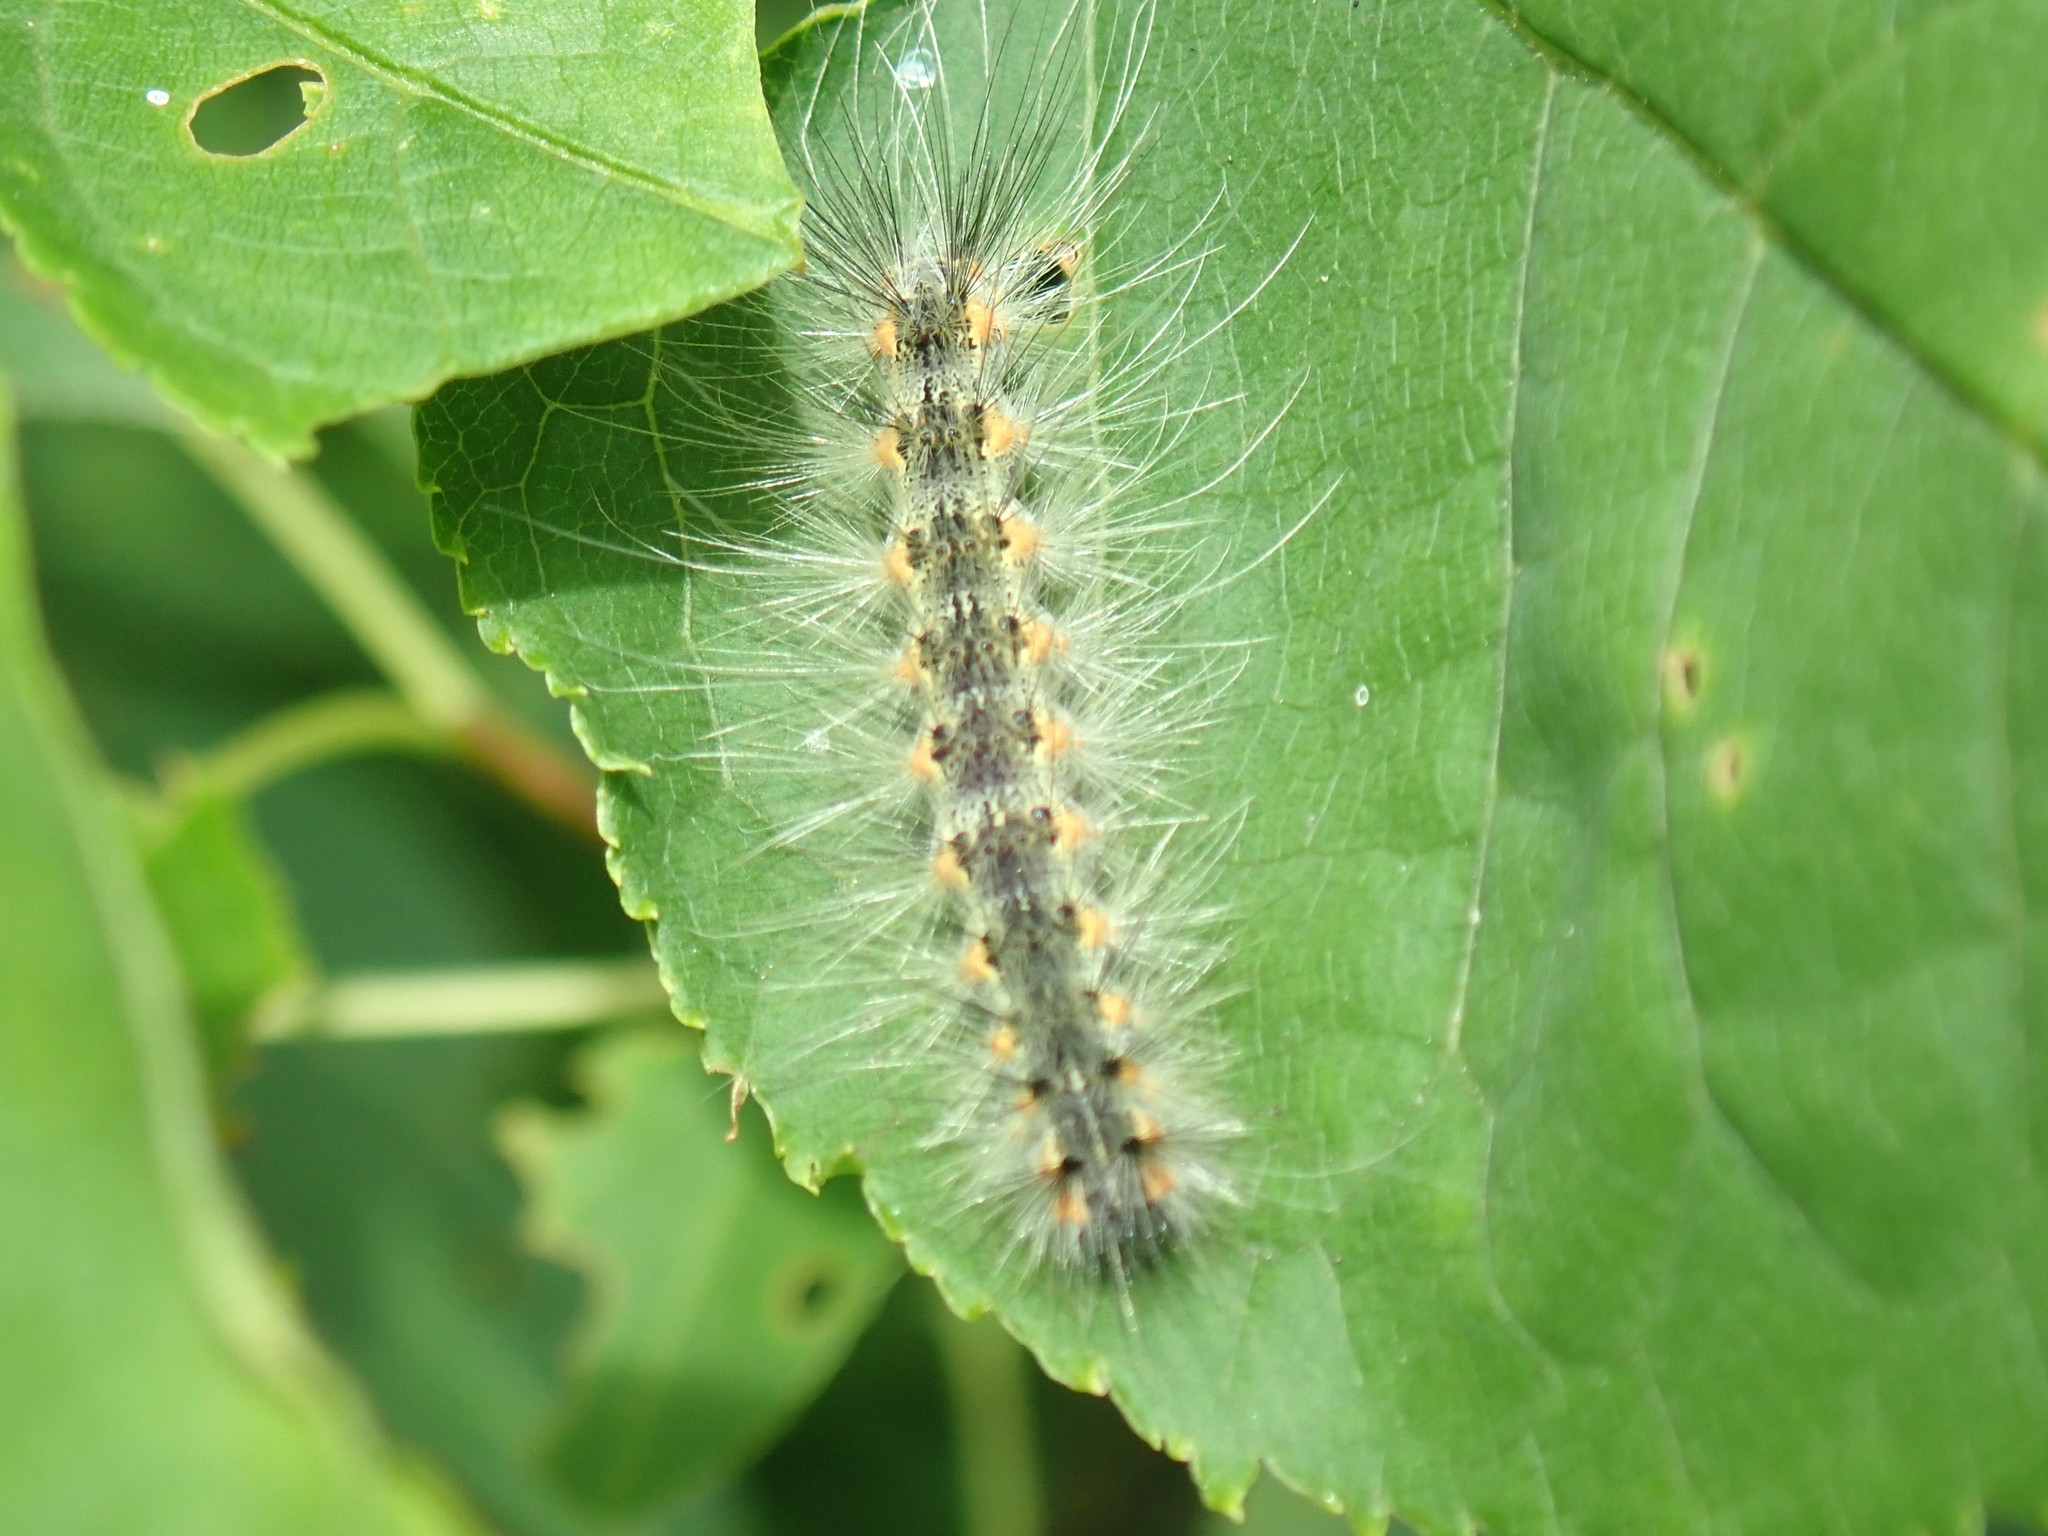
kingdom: Animalia
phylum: Arthropoda
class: Insecta
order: Lepidoptera
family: Erebidae
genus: Hyphantria
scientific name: Hyphantria cunea
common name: American white moth
